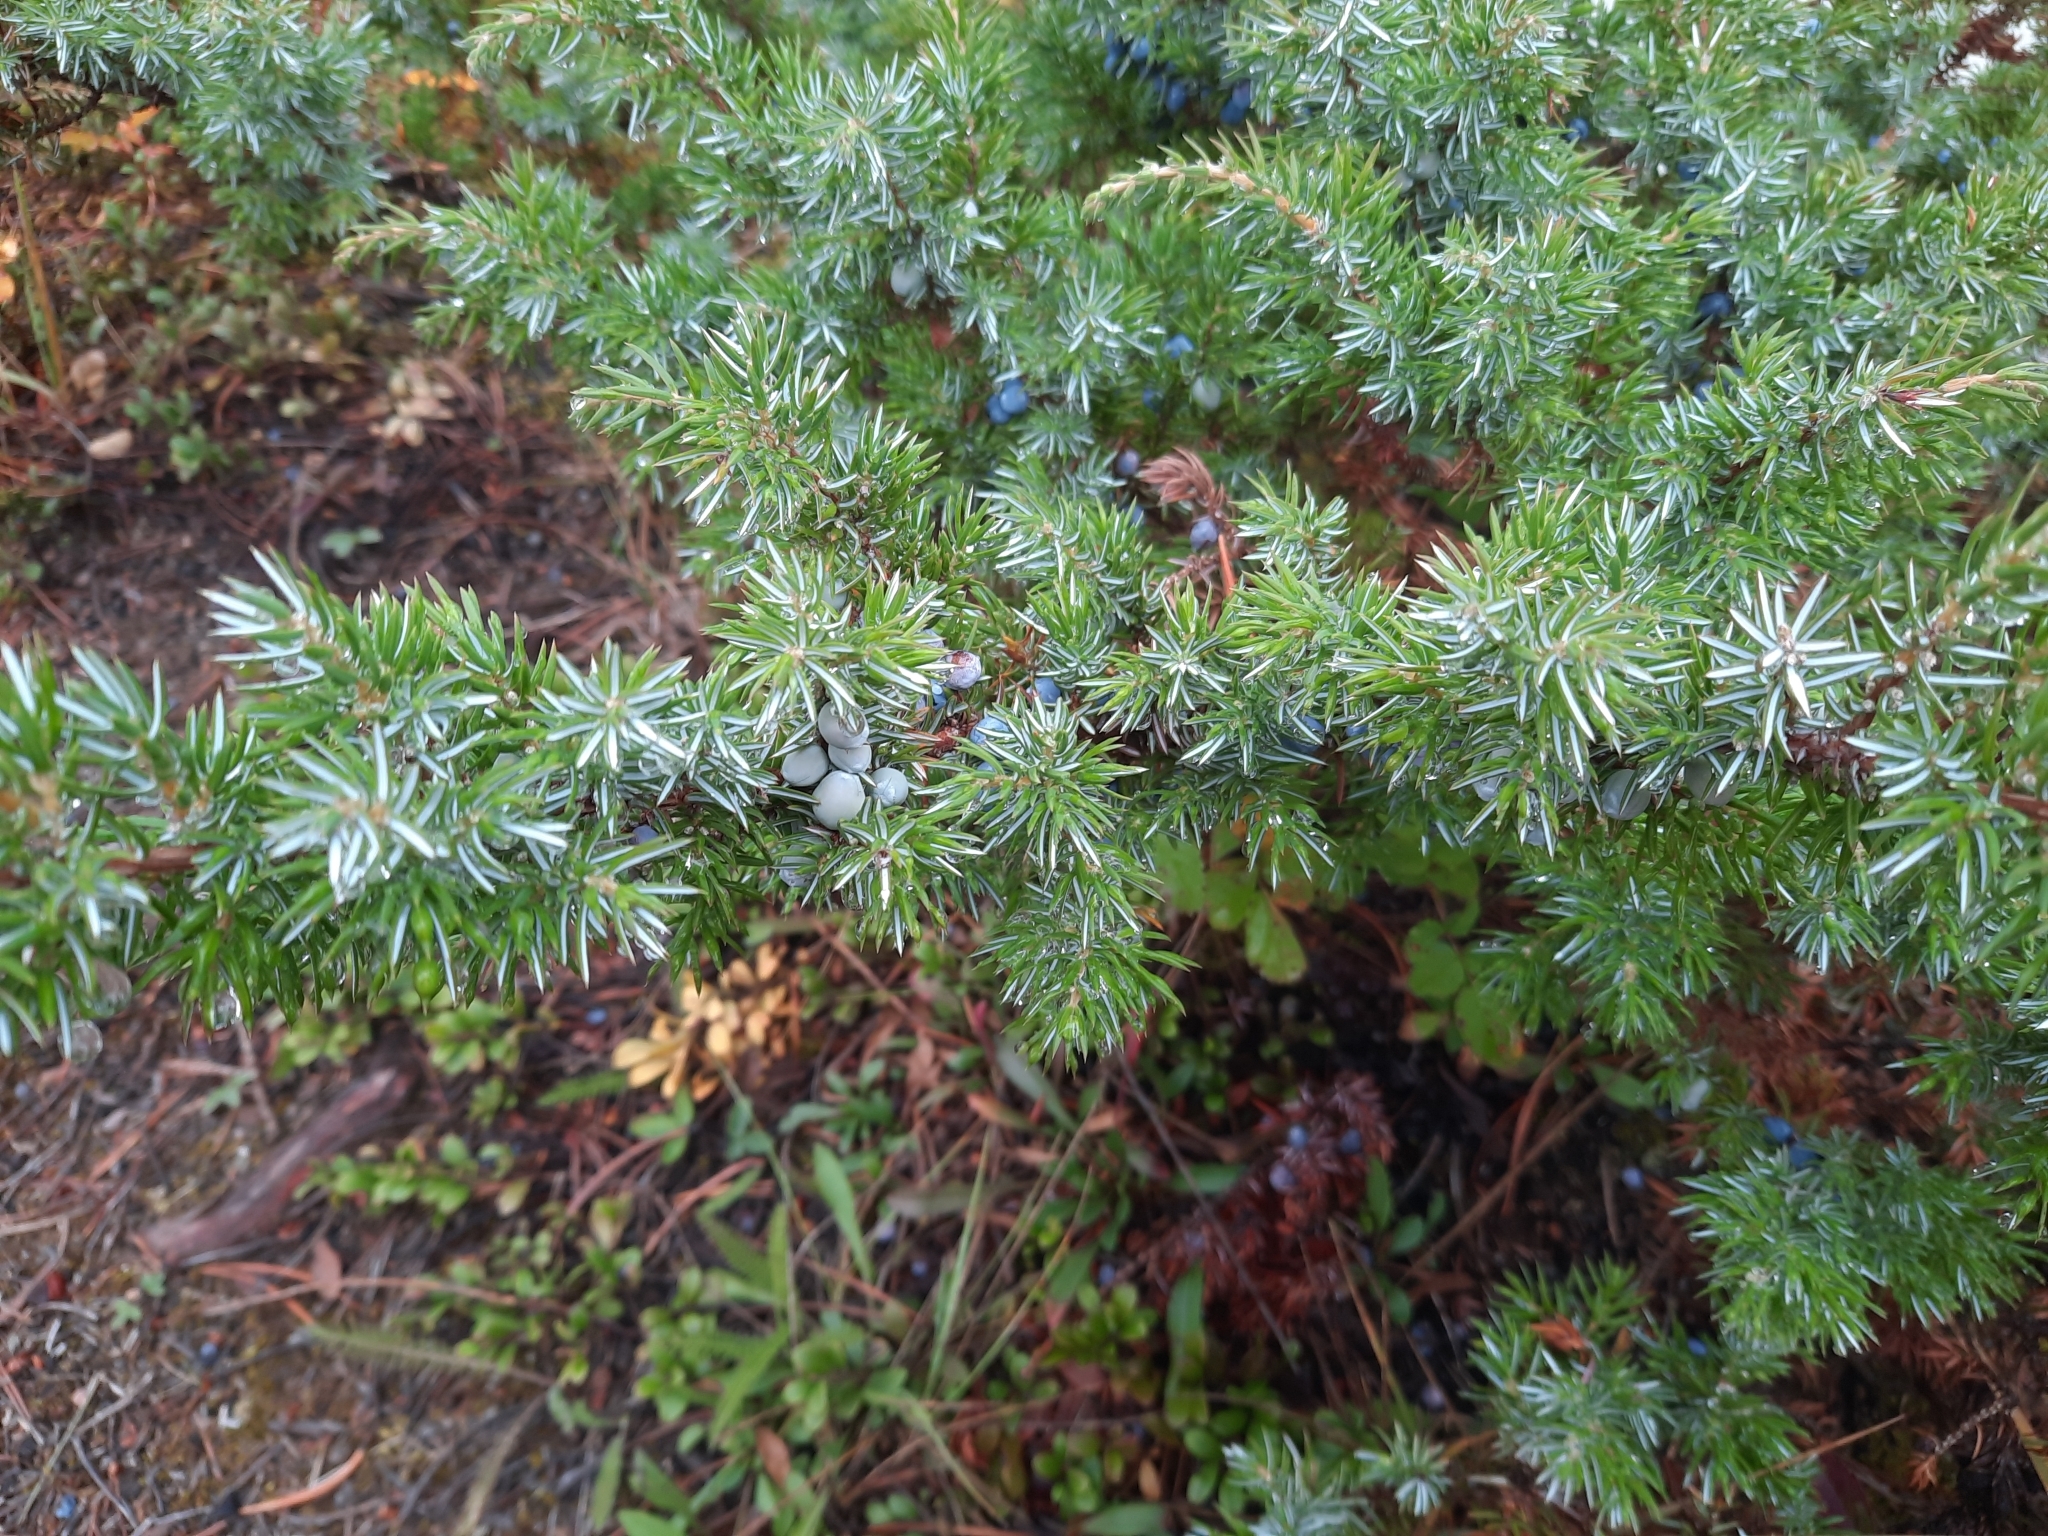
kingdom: Plantae
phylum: Tracheophyta
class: Pinopsida
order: Pinales
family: Cupressaceae
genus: Juniperus
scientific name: Juniperus communis
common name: Common juniper
